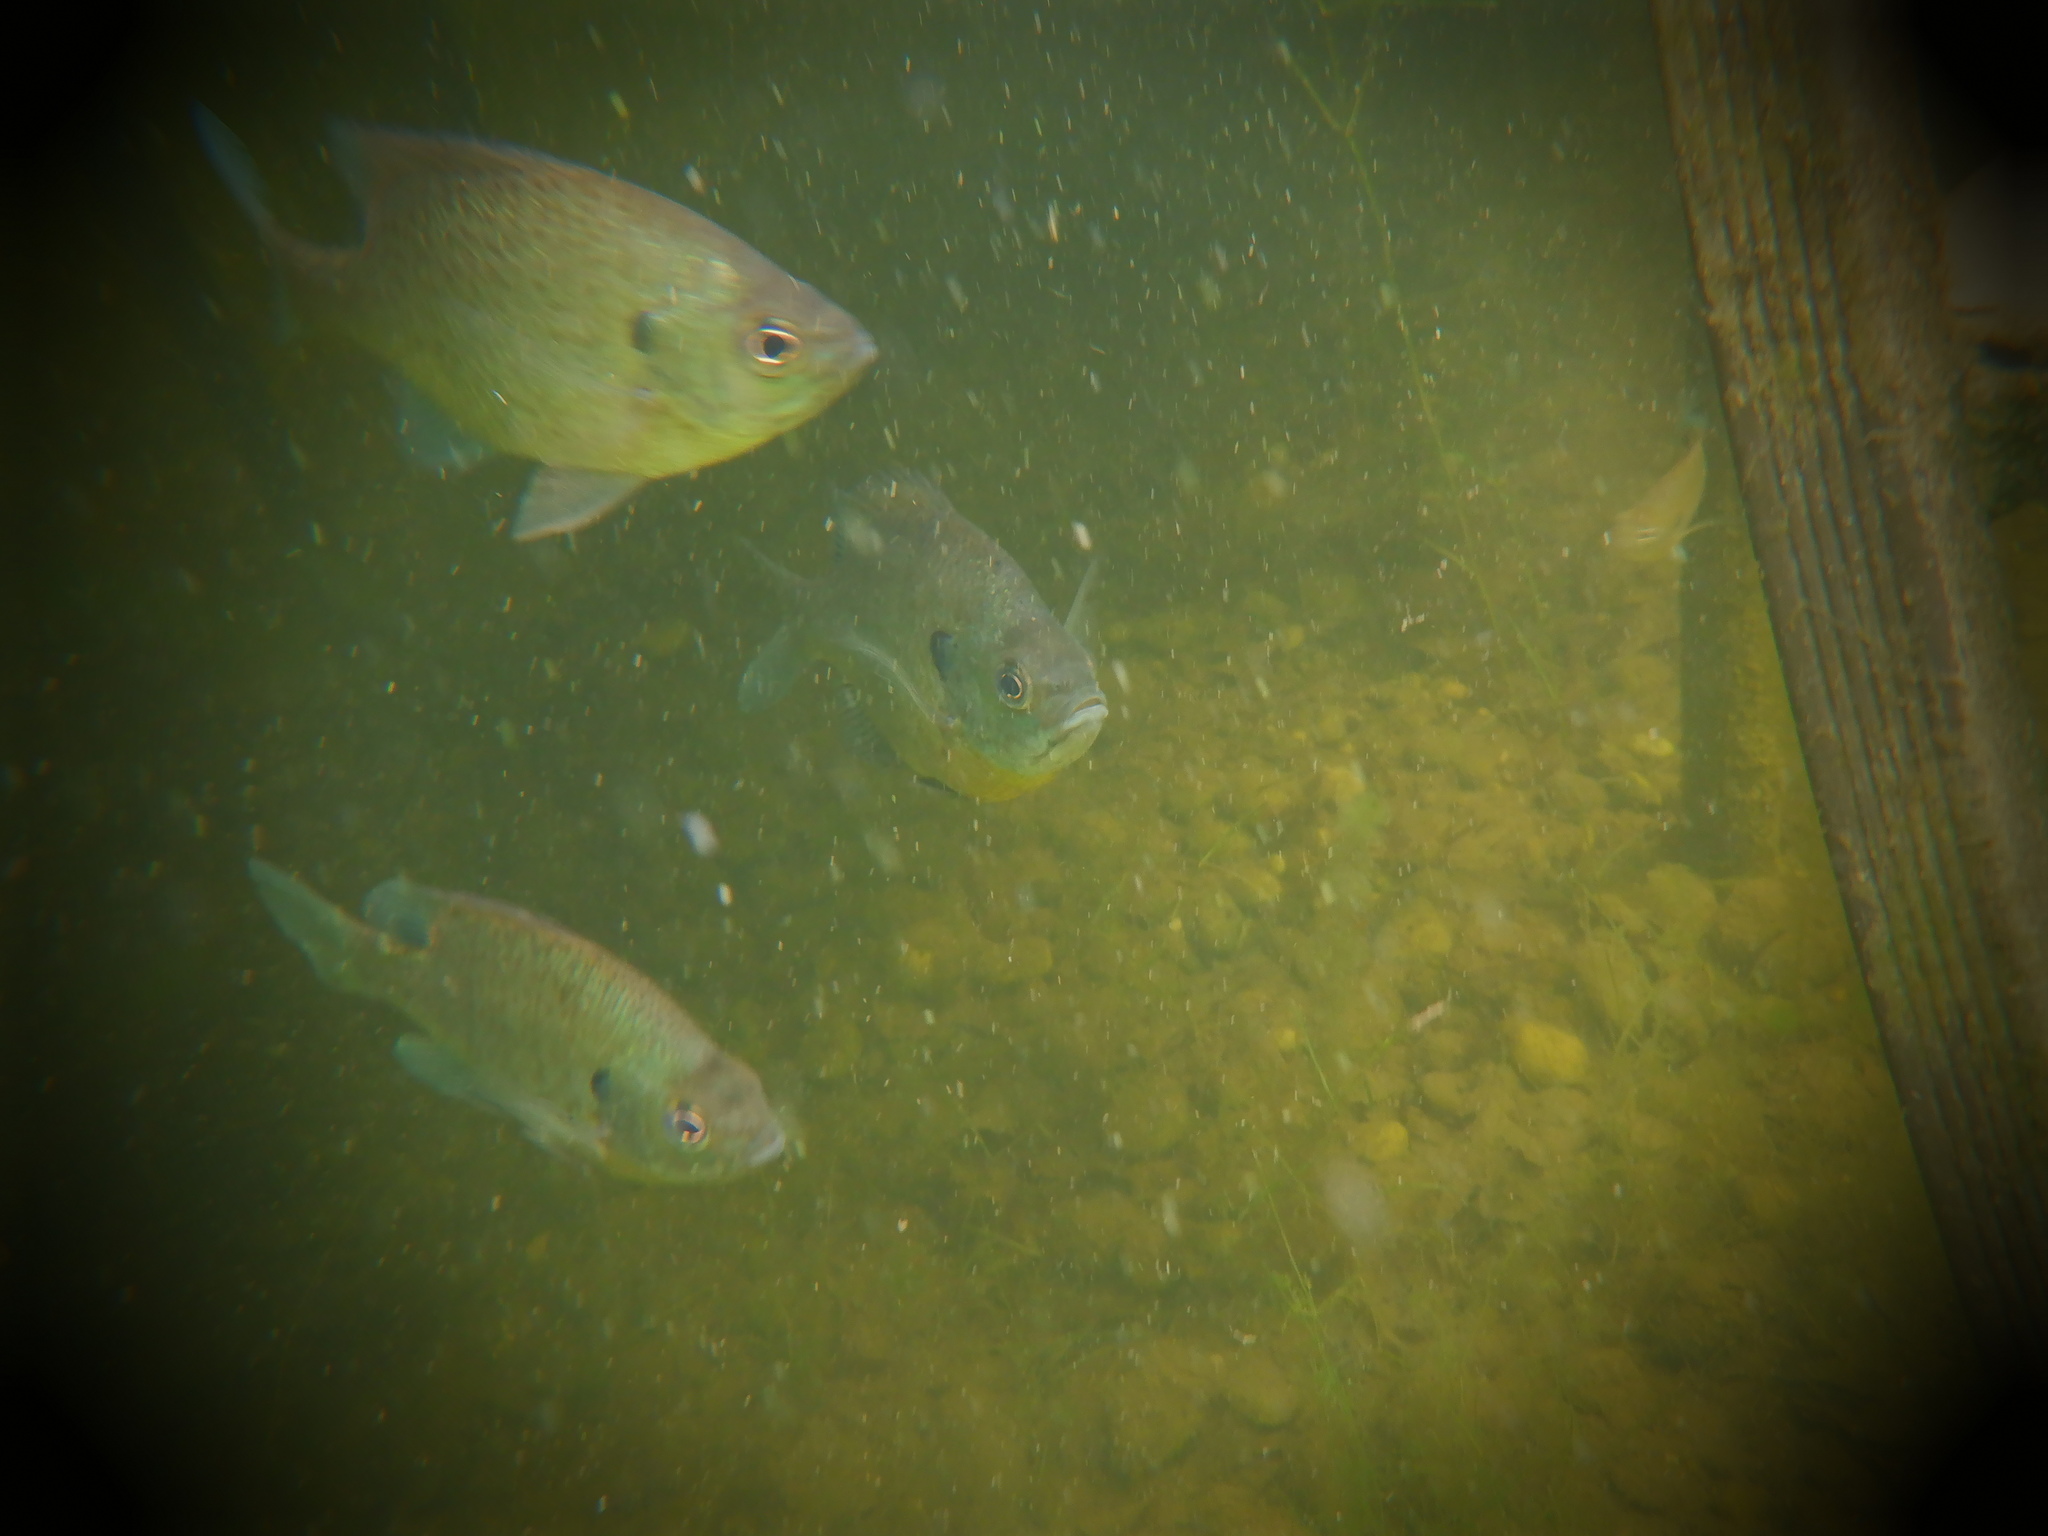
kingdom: Animalia
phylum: Chordata
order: Perciformes
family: Centrarchidae
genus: Lepomis
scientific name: Lepomis macrochirus
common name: Bluegill
